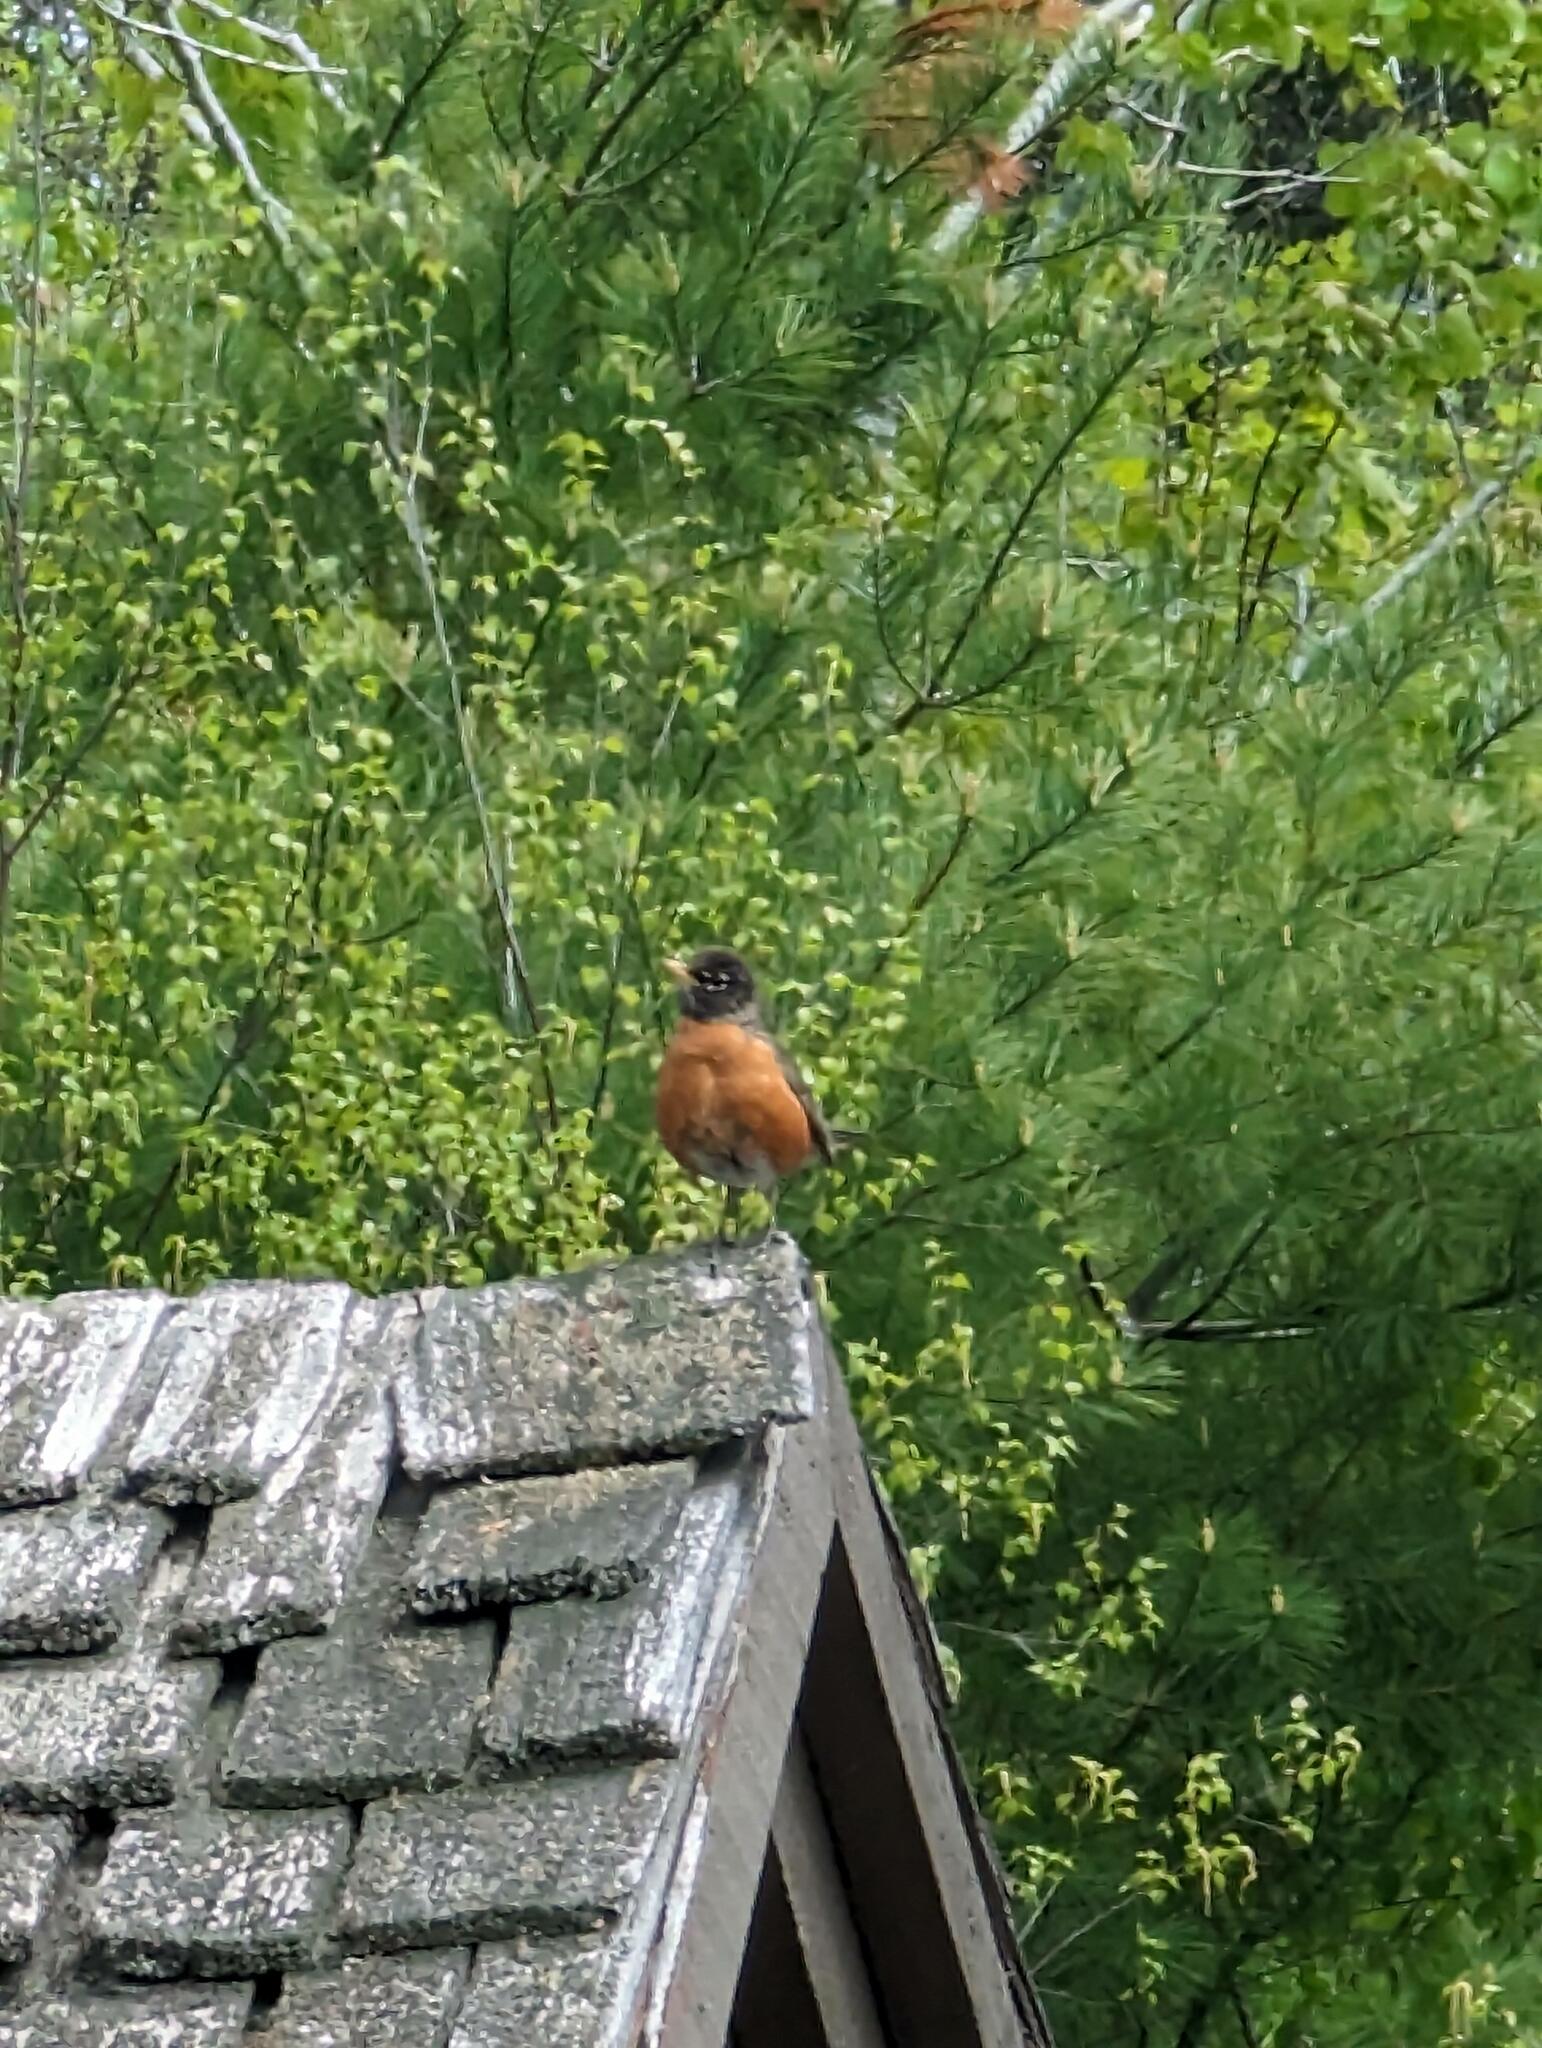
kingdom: Animalia
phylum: Chordata
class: Aves
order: Passeriformes
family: Turdidae
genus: Turdus
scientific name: Turdus migratorius
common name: American robin
